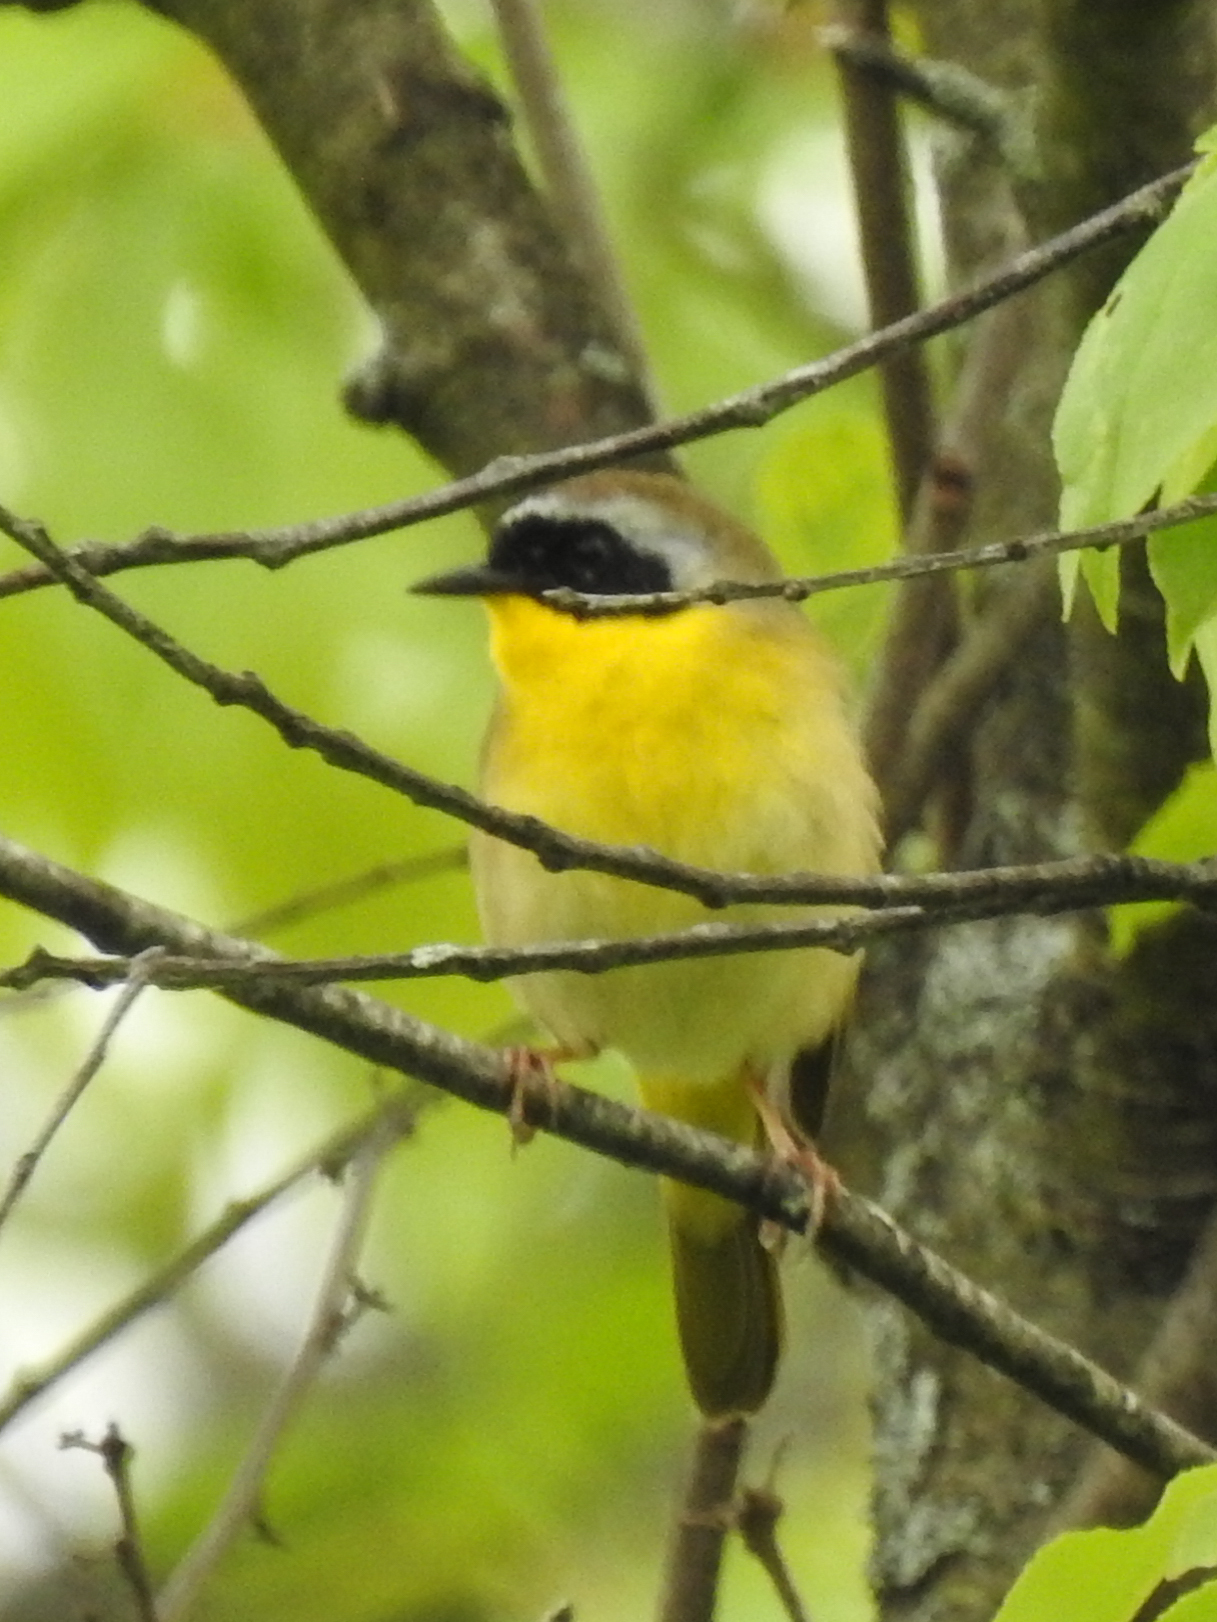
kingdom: Animalia
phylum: Chordata
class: Aves
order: Passeriformes
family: Parulidae
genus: Geothlypis
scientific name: Geothlypis trichas
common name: Common yellowthroat
